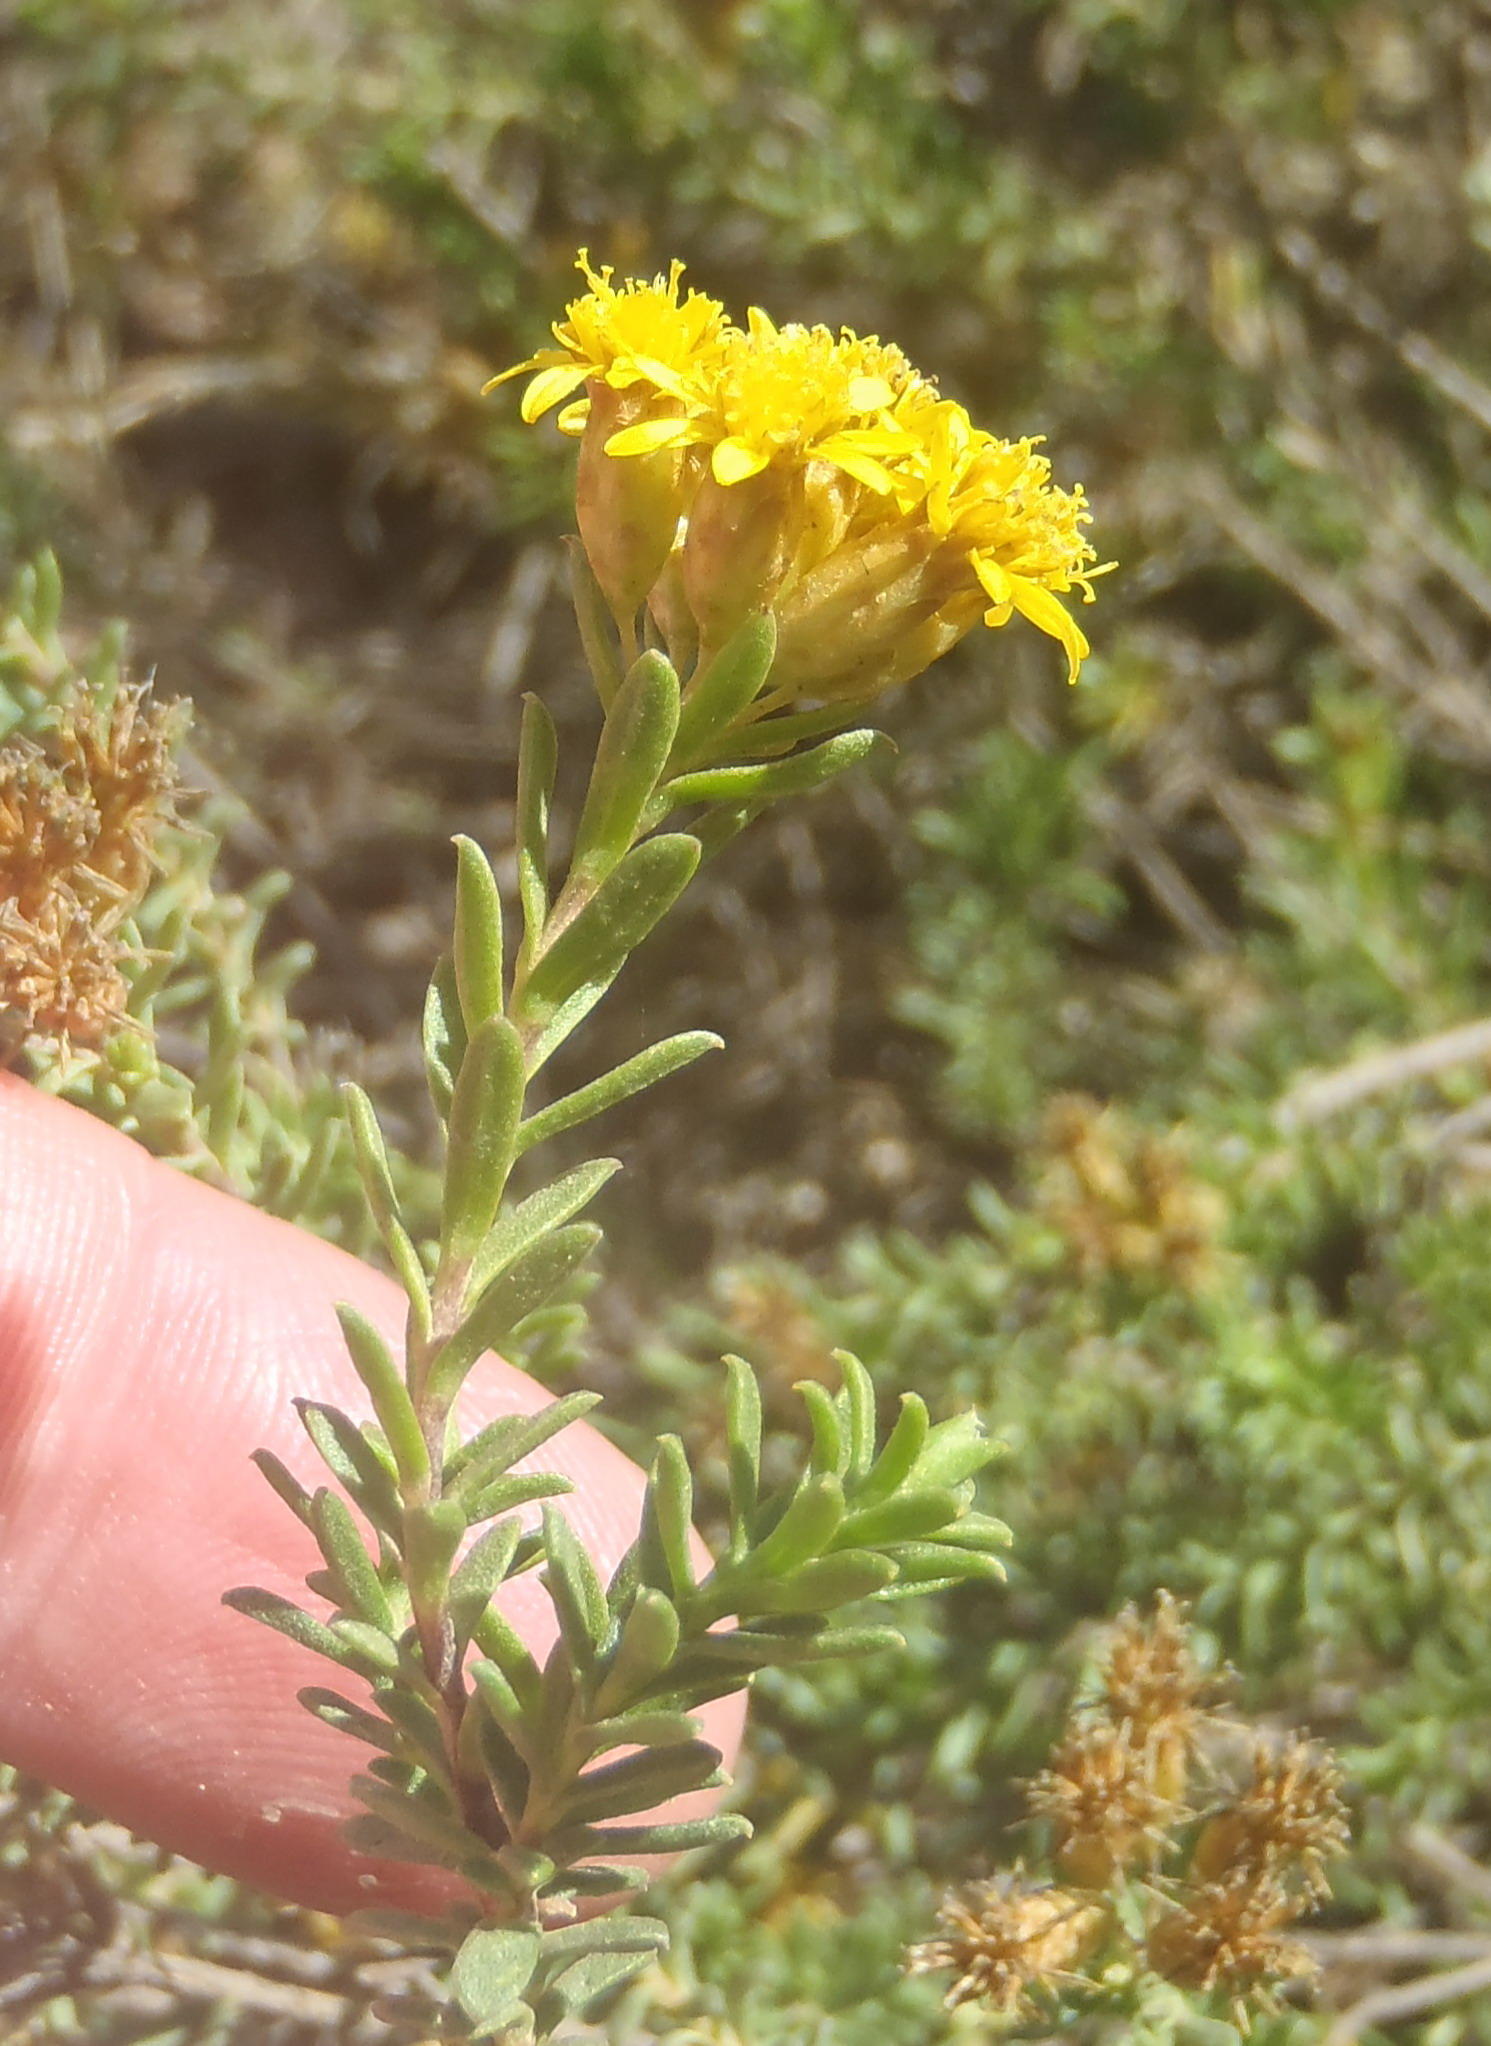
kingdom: Plantae
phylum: Tracheophyta
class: Magnoliopsida
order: Asterales
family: Asteraceae
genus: Oedera
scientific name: Oedera genistifolia
